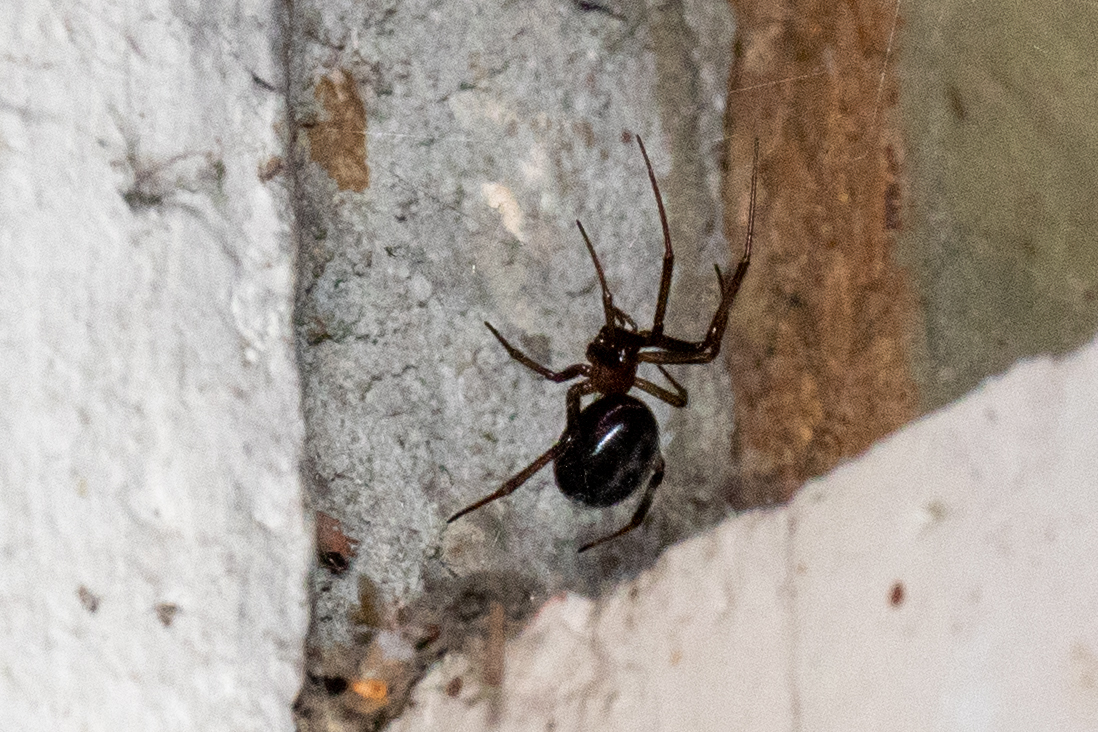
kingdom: Animalia
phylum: Arthropoda
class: Arachnida
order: Araneae
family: Theridiidae
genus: Steatoda
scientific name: Steatoda nobilis
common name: Cobweb weaver
